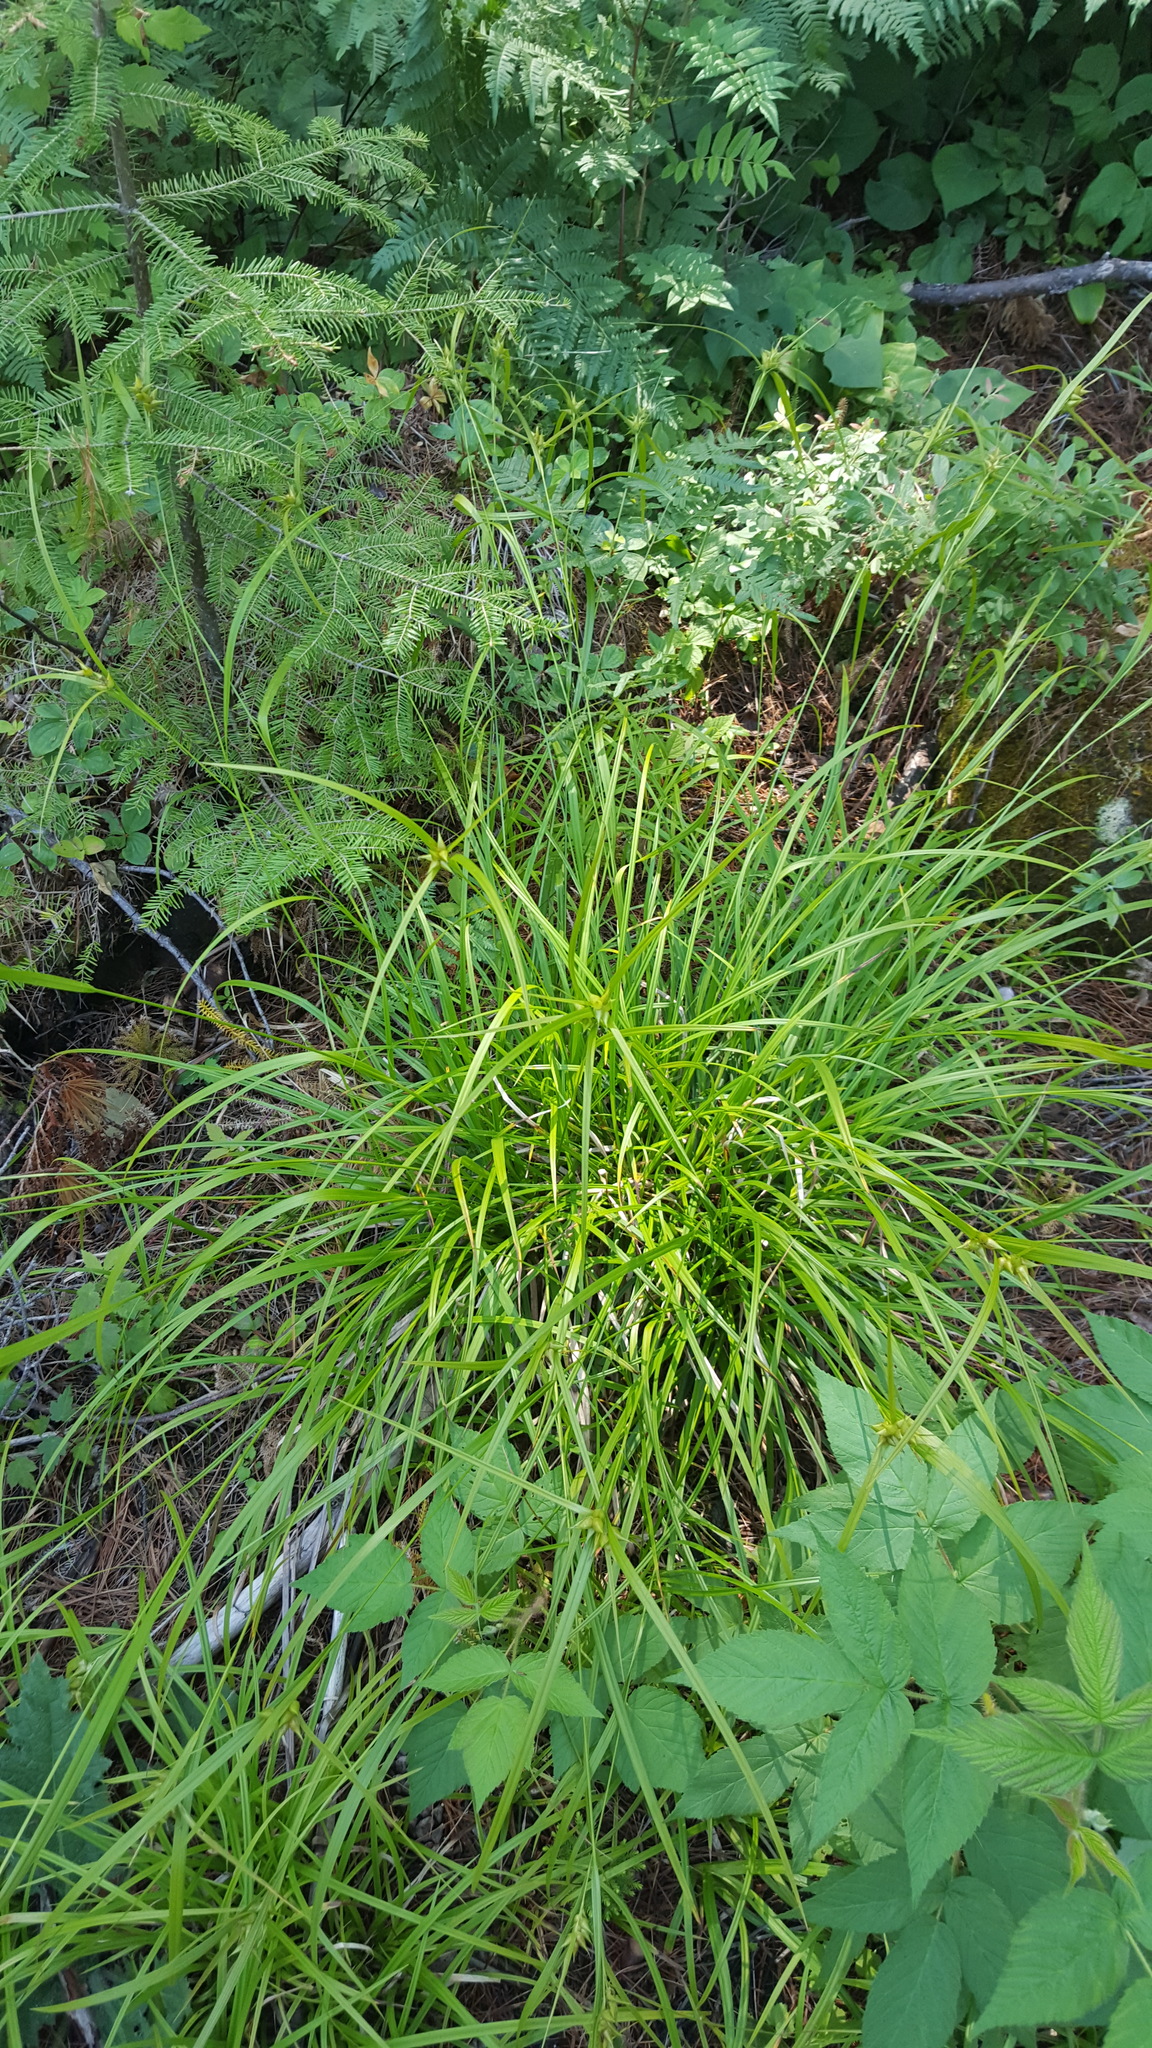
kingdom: Plantae
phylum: Tracheophyta
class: Liliopsida
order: Poales
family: Cyperaceae
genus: Carex
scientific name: Carex intumescens
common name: Greater bladder sedge
